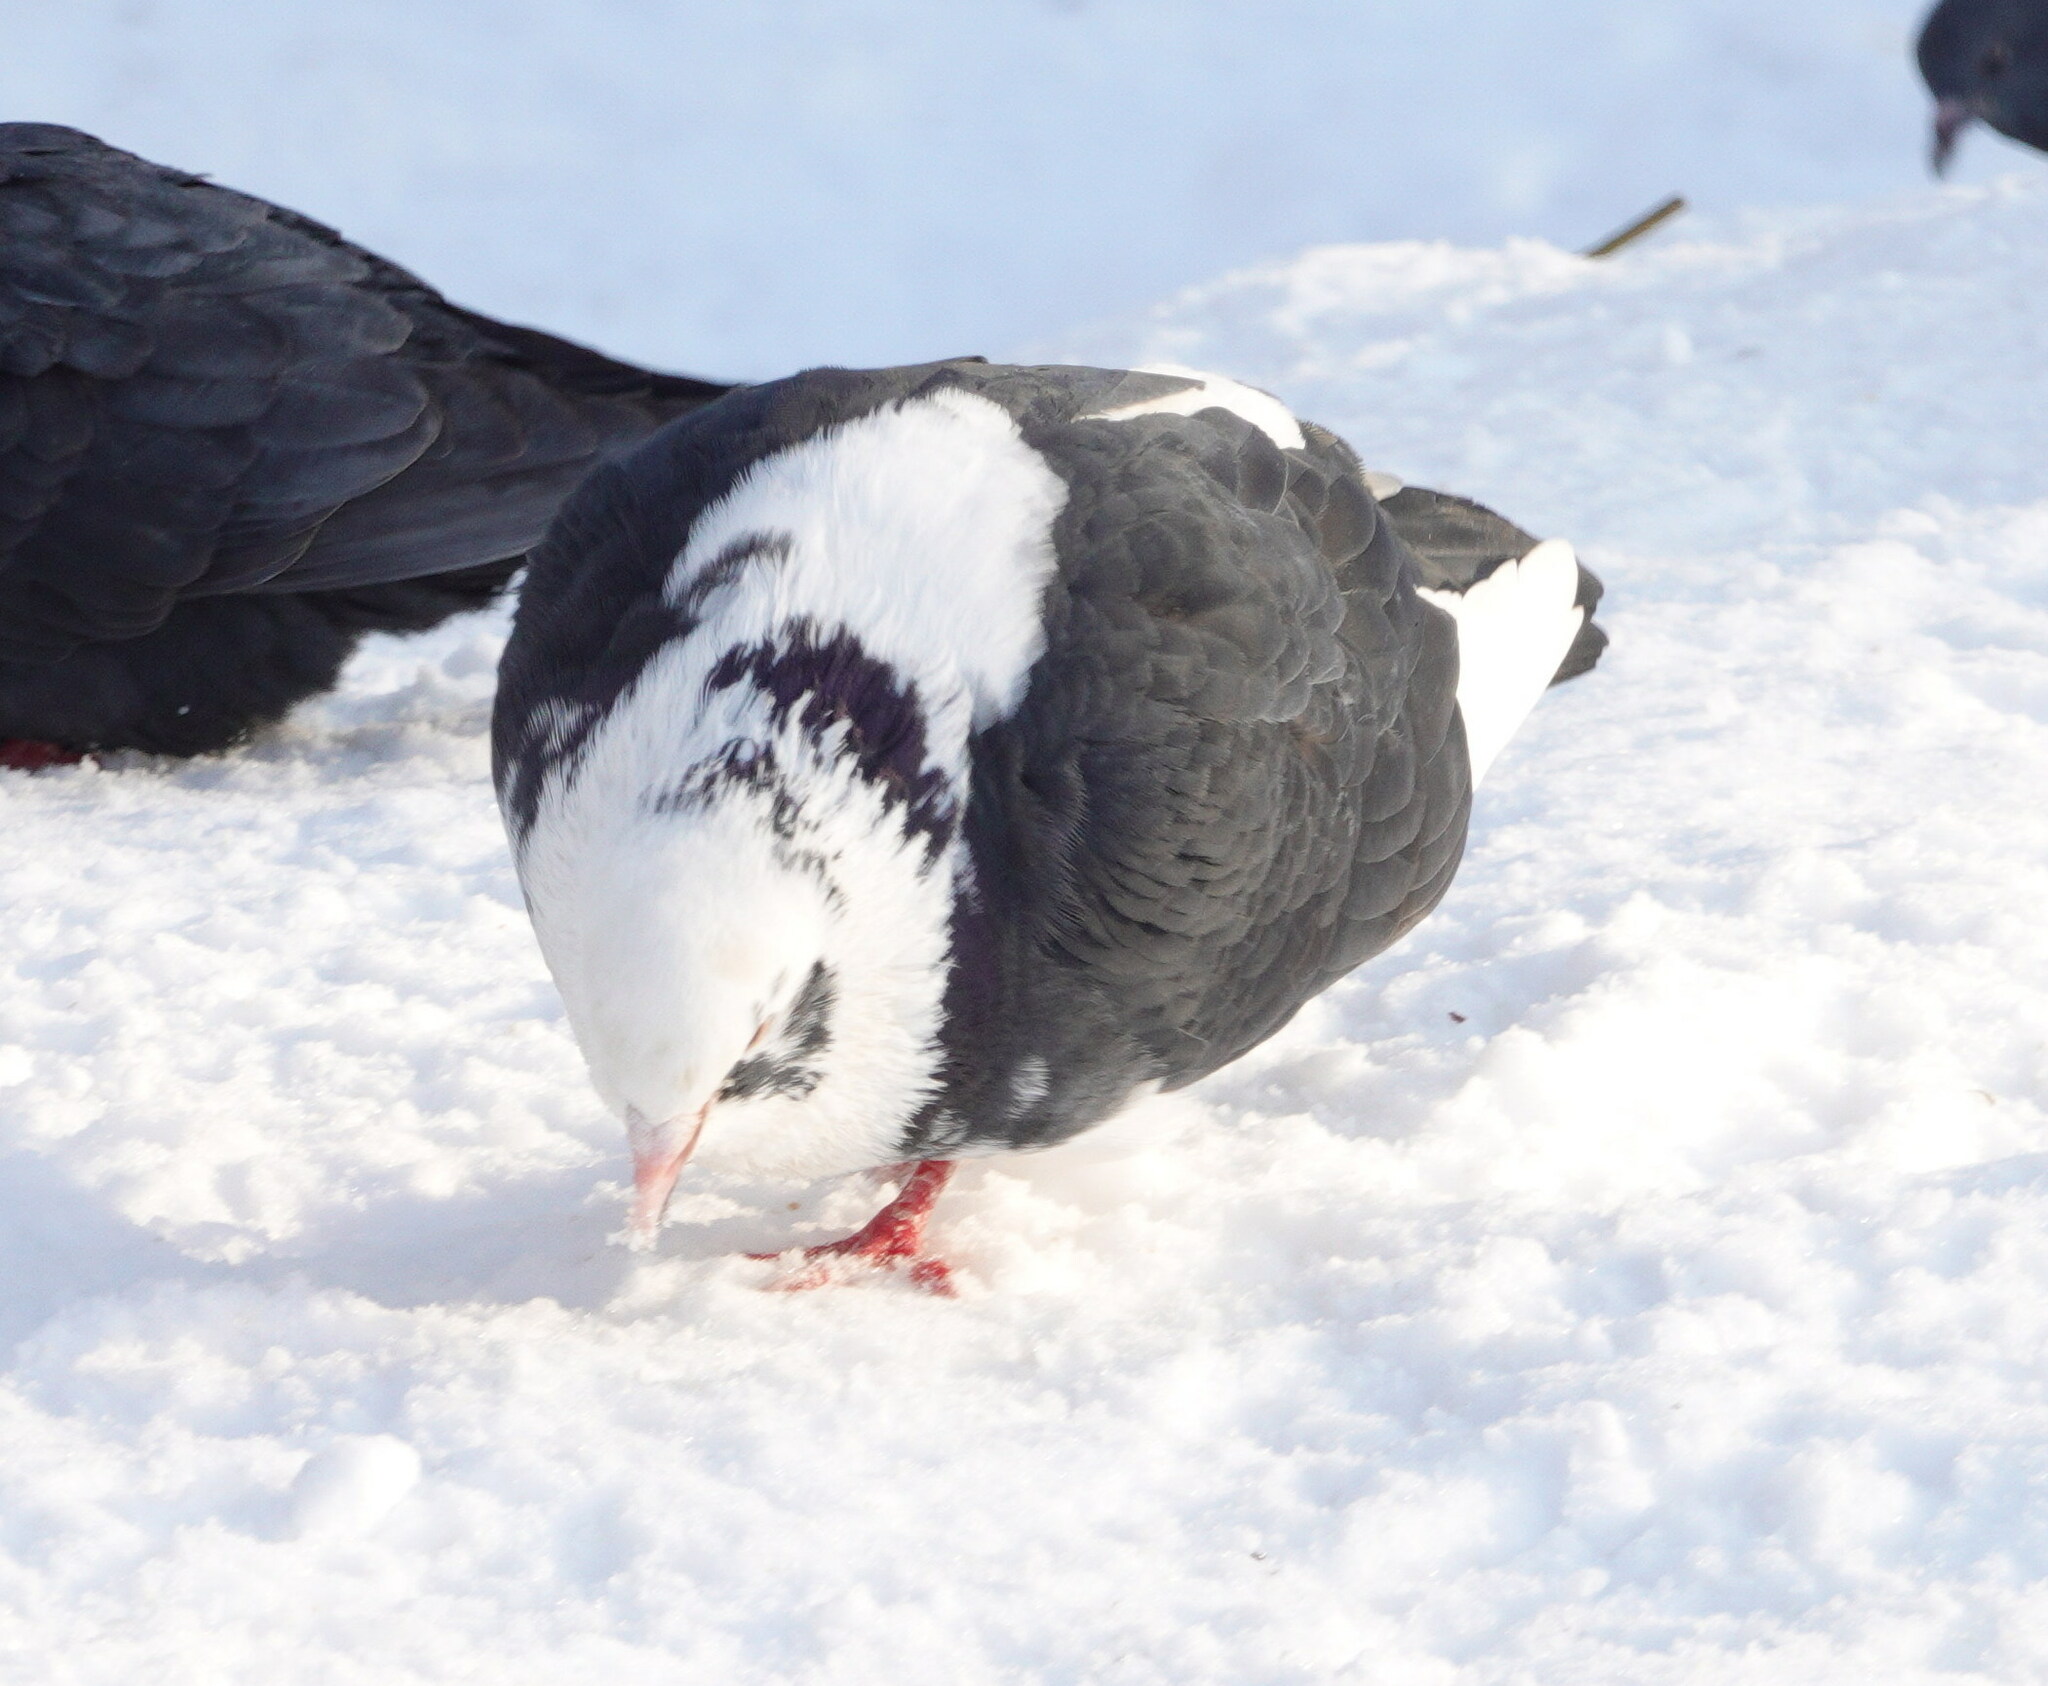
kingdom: Animalia
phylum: Chordata
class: Aves
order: Columbiformes
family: Columbidae
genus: Columba
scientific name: Columba livia
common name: Rock pigeon
